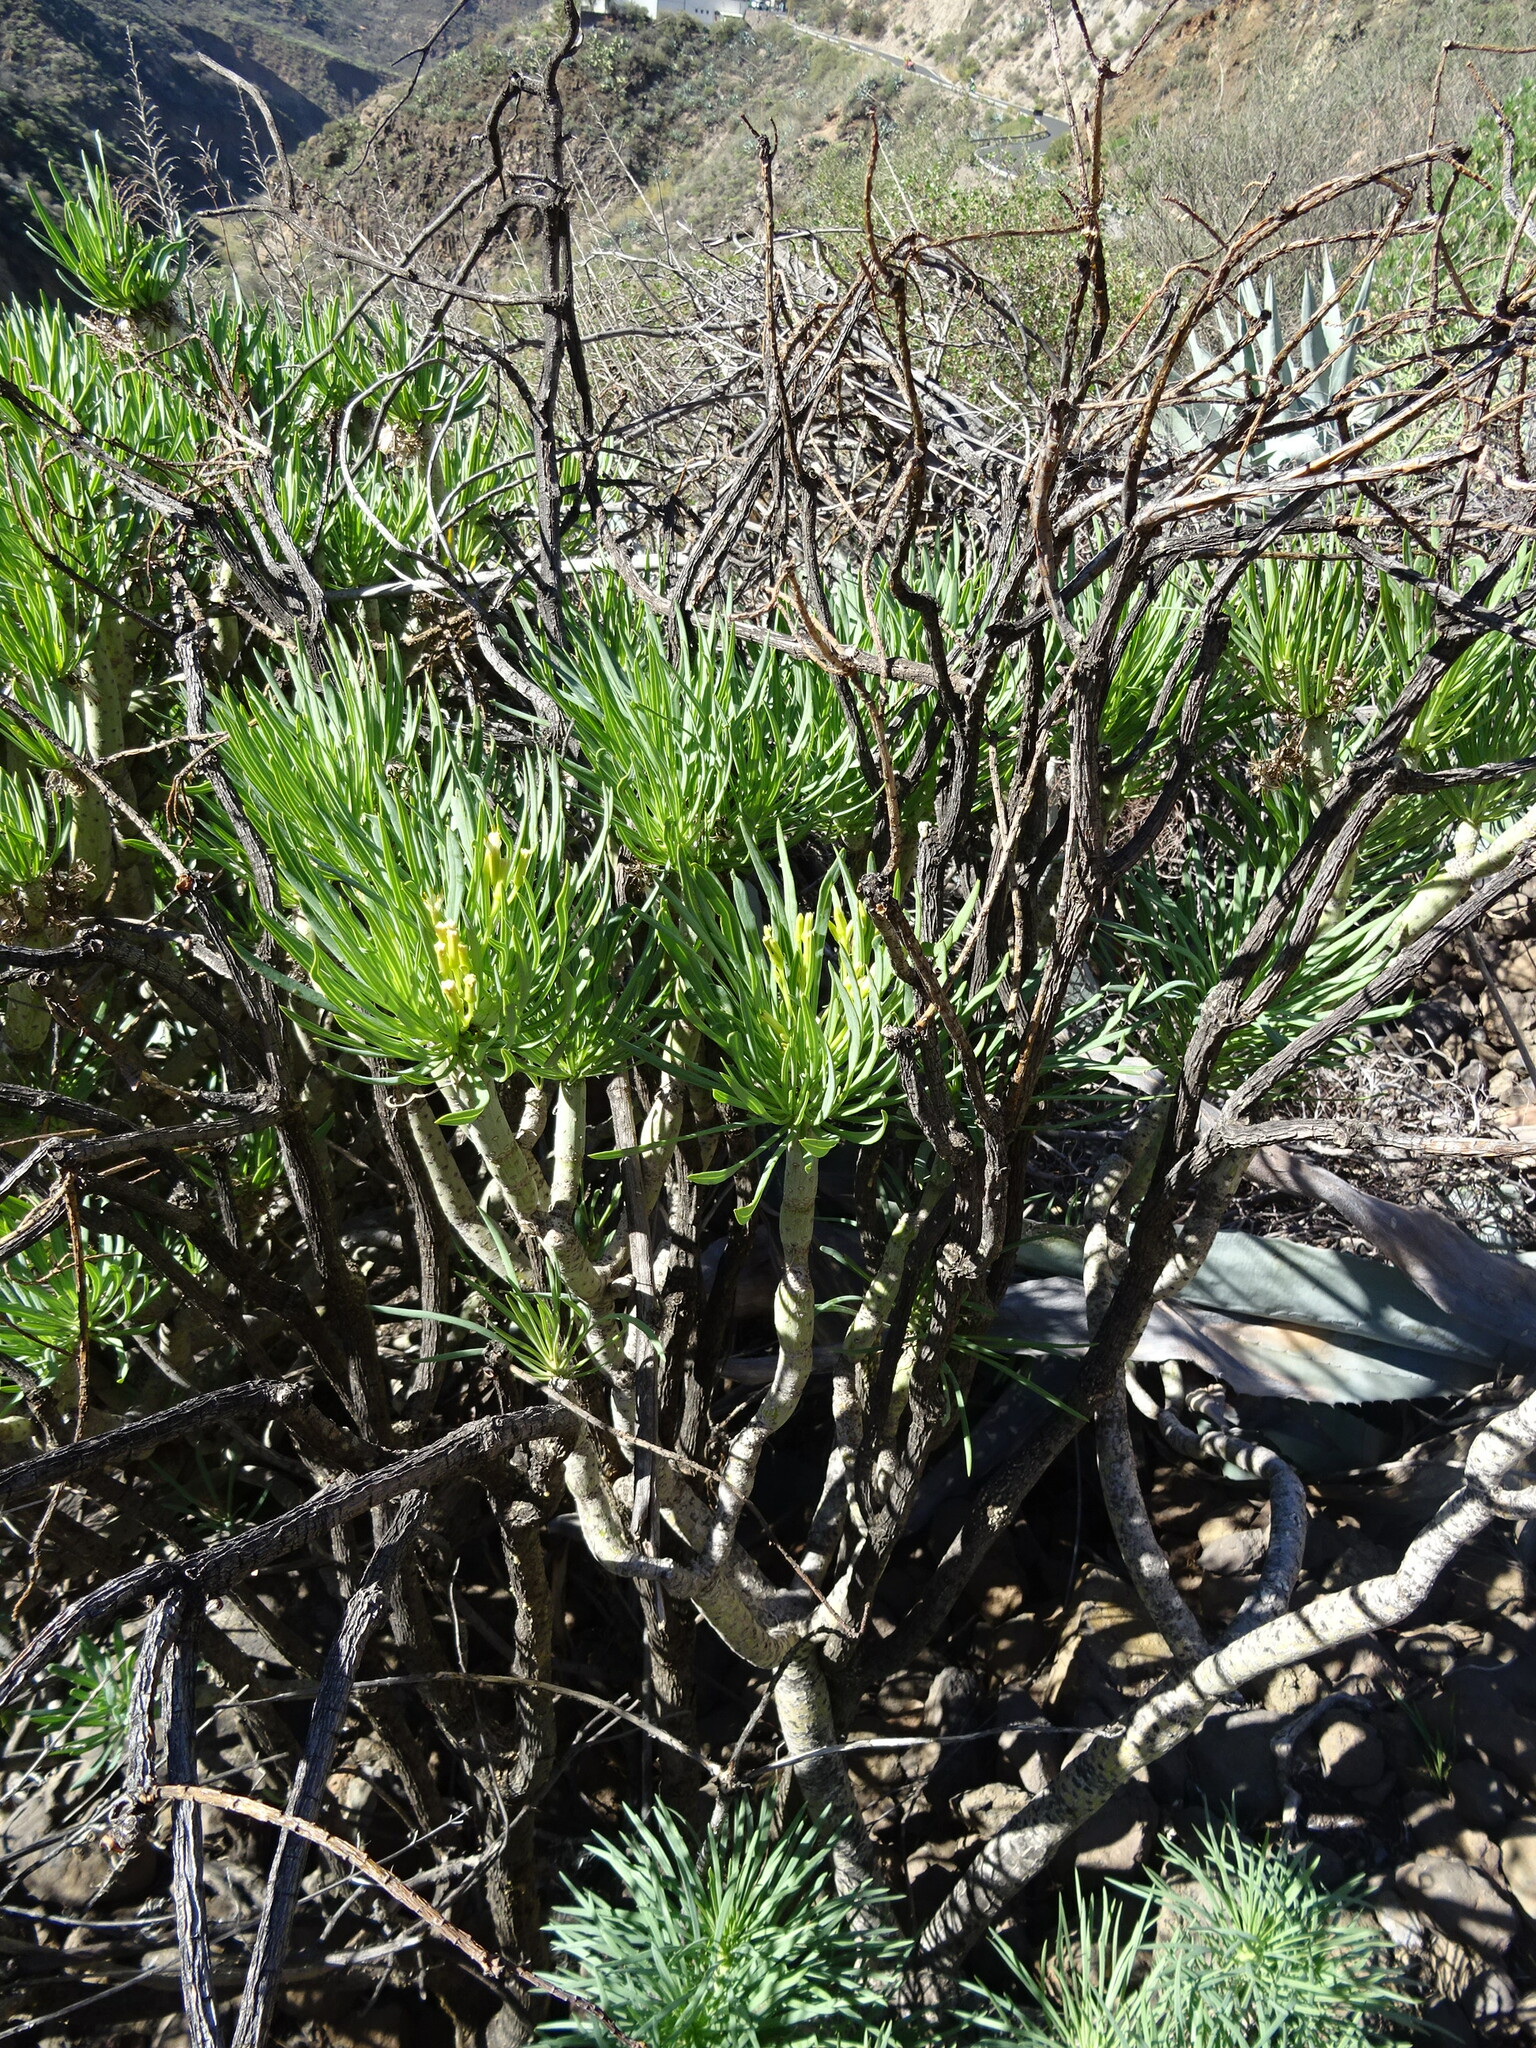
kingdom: Plantae
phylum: Tracheophyta
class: Magnoliopsida
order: Asterales
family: Asteraceae
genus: Kleinia
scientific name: Kleinia neriifolia
